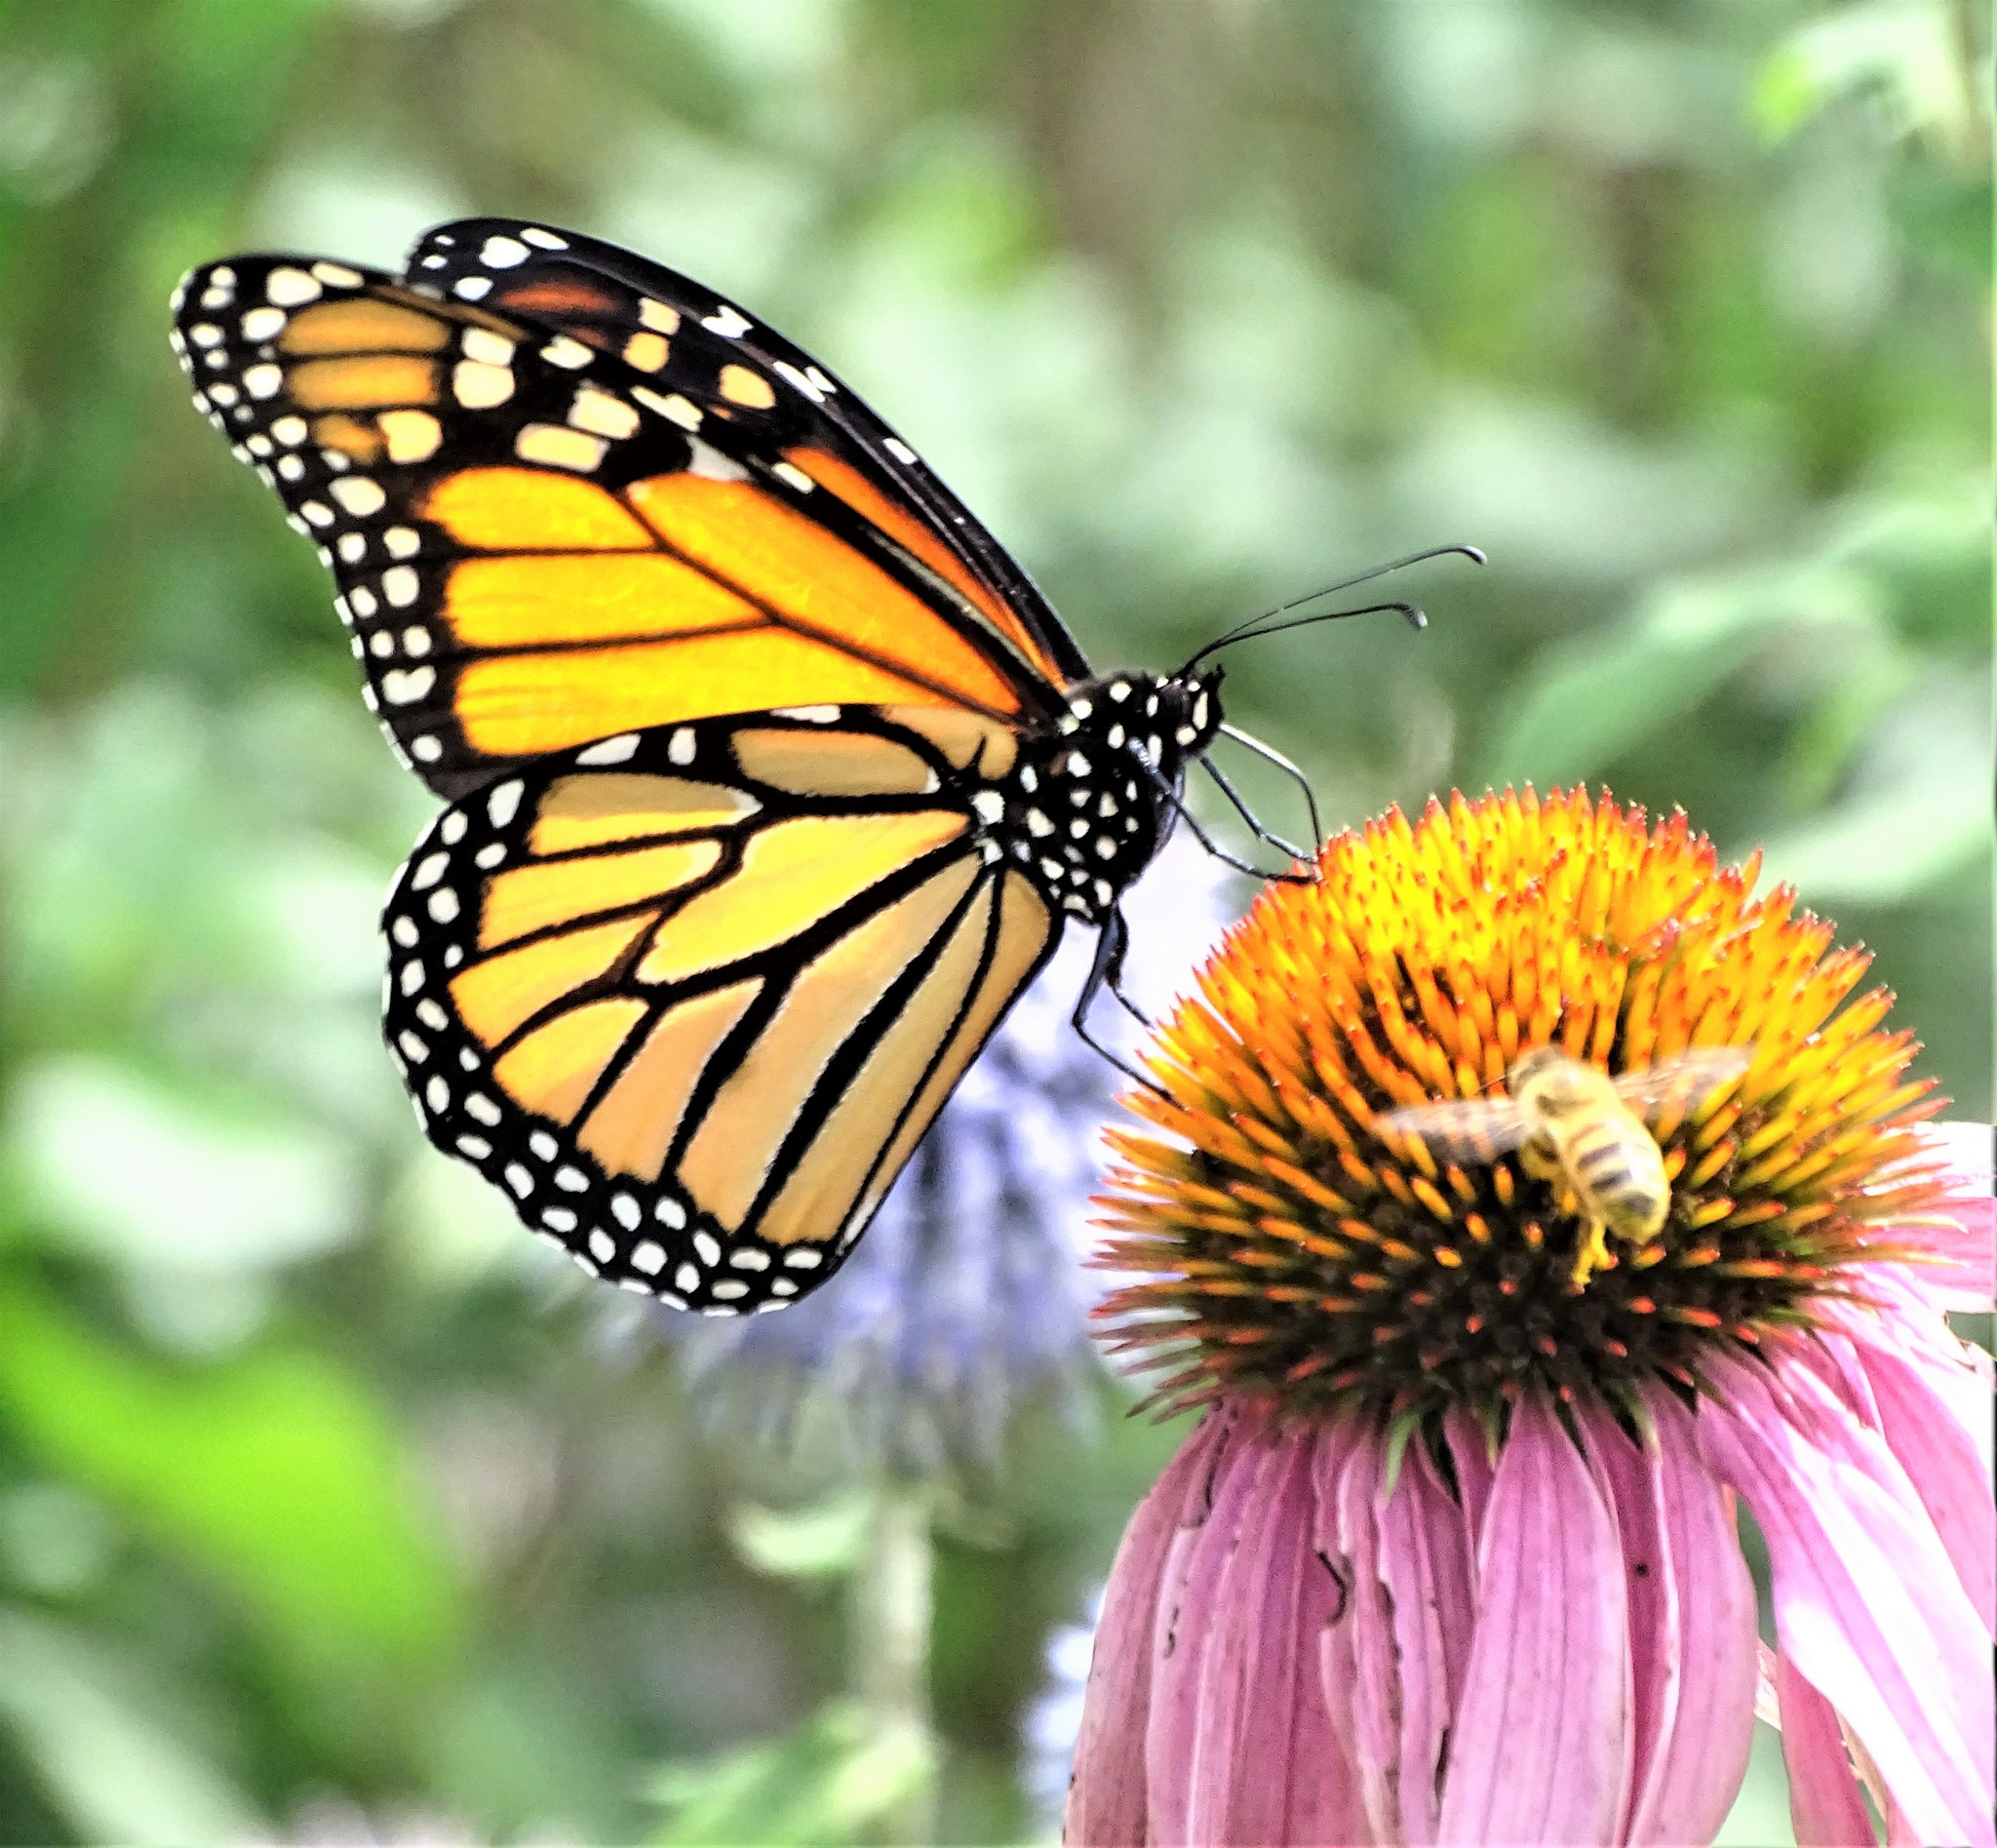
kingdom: Animalia
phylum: Arthropoda
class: Insecta
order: Lepidoptera
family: Nymphalidae
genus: Danaus
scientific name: Danaus plexippus
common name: Monarch
